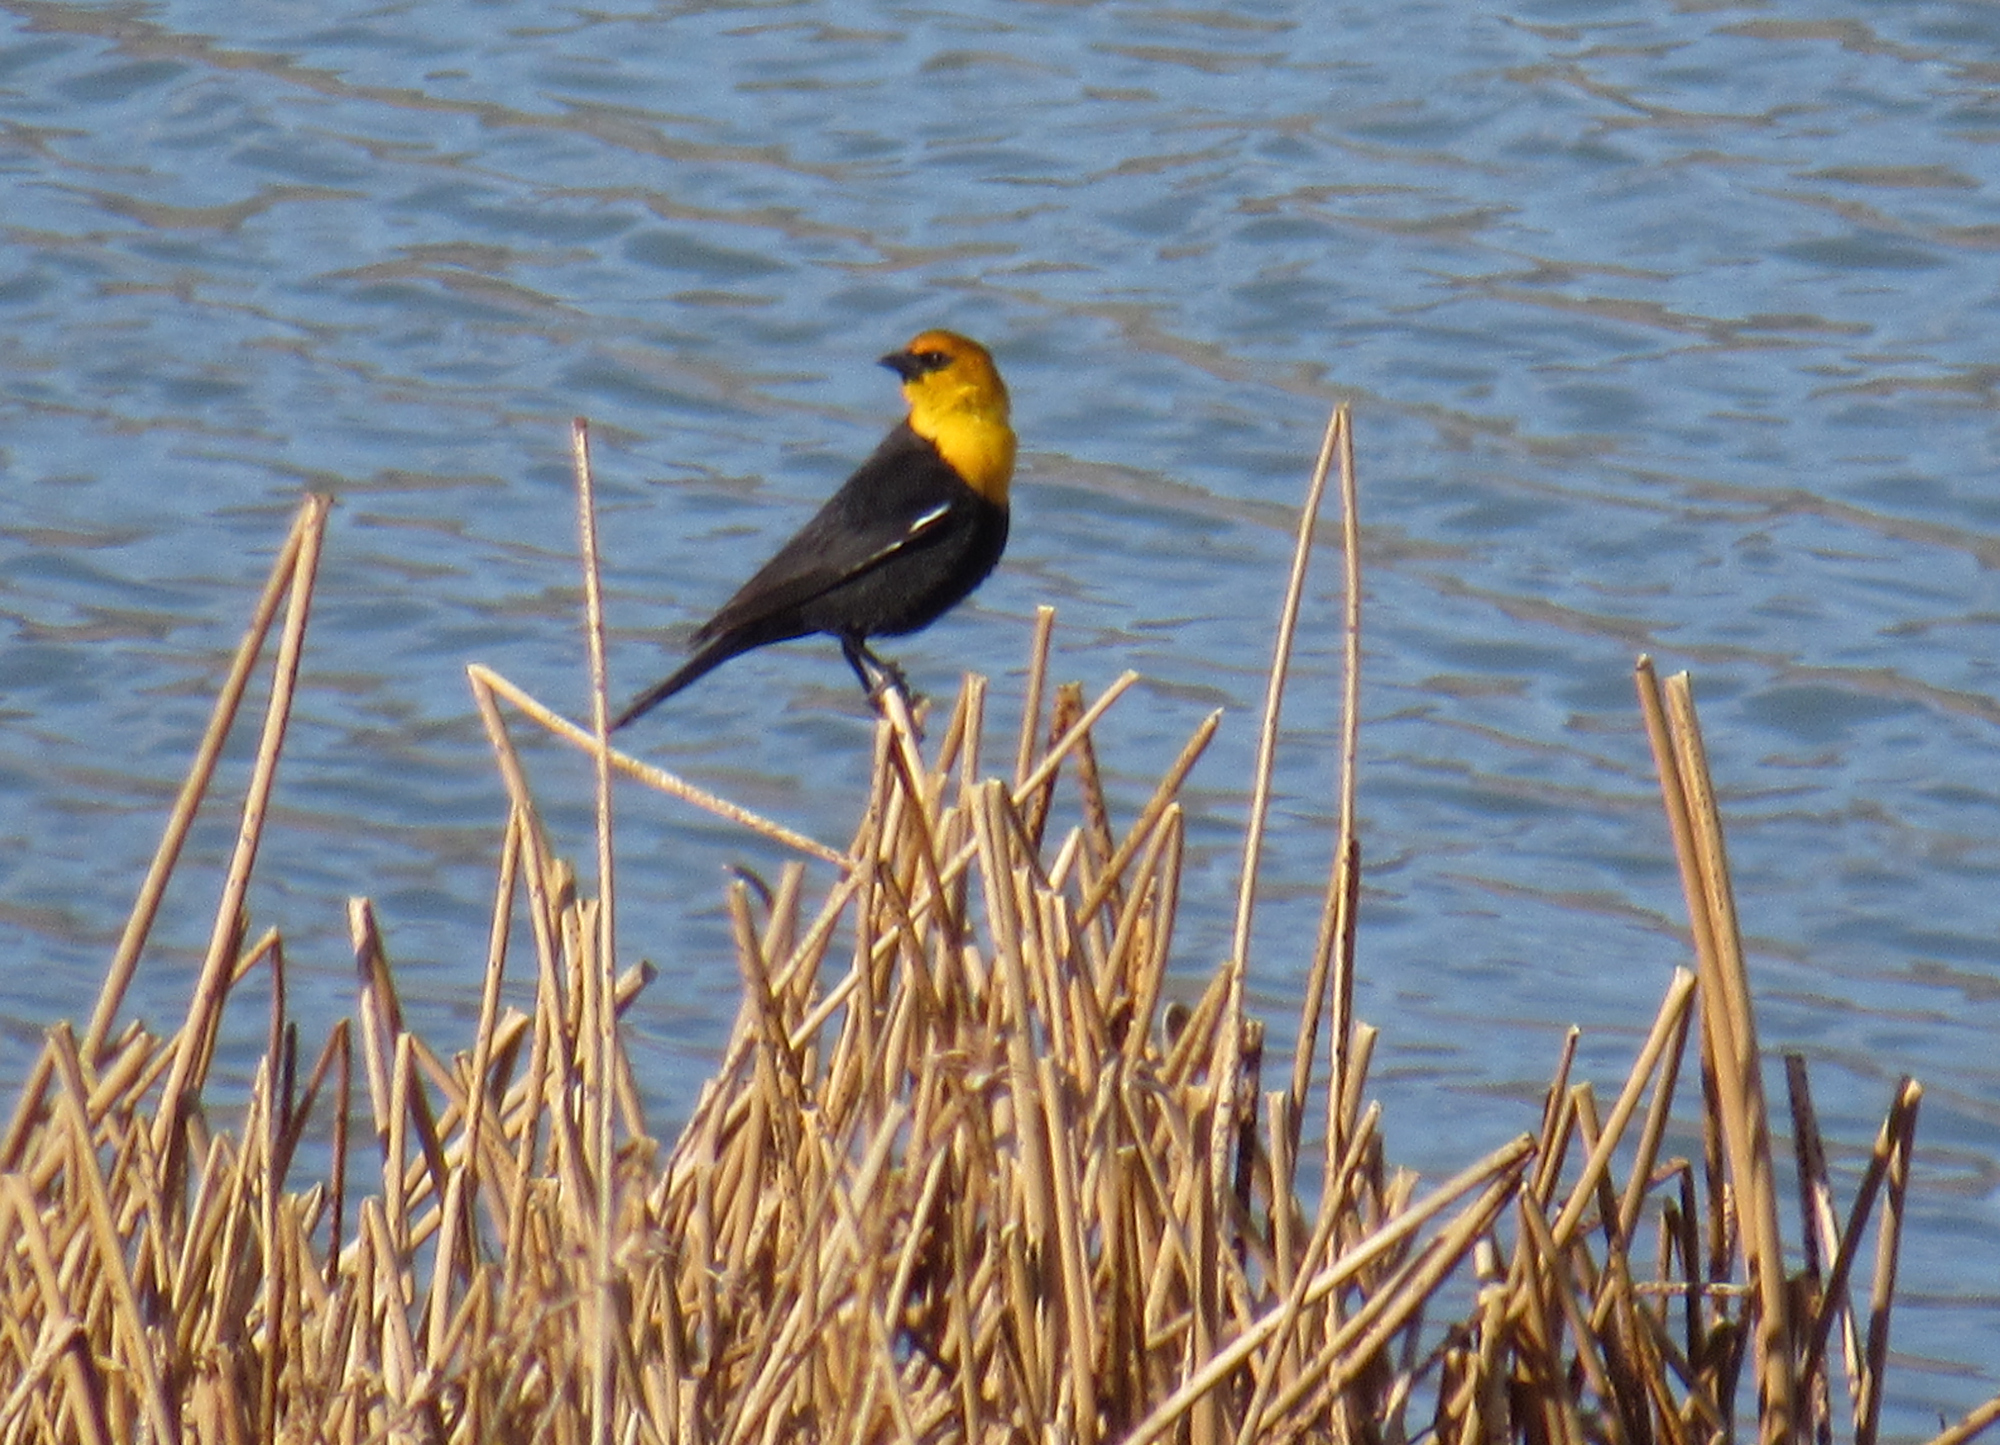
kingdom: Animalia
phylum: Chordata
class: Aves
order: Passeriformes
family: Icteridae
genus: Xanthocephalus
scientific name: Xanthocephalus xanthocephalus
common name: Yellow-headed blackbird
